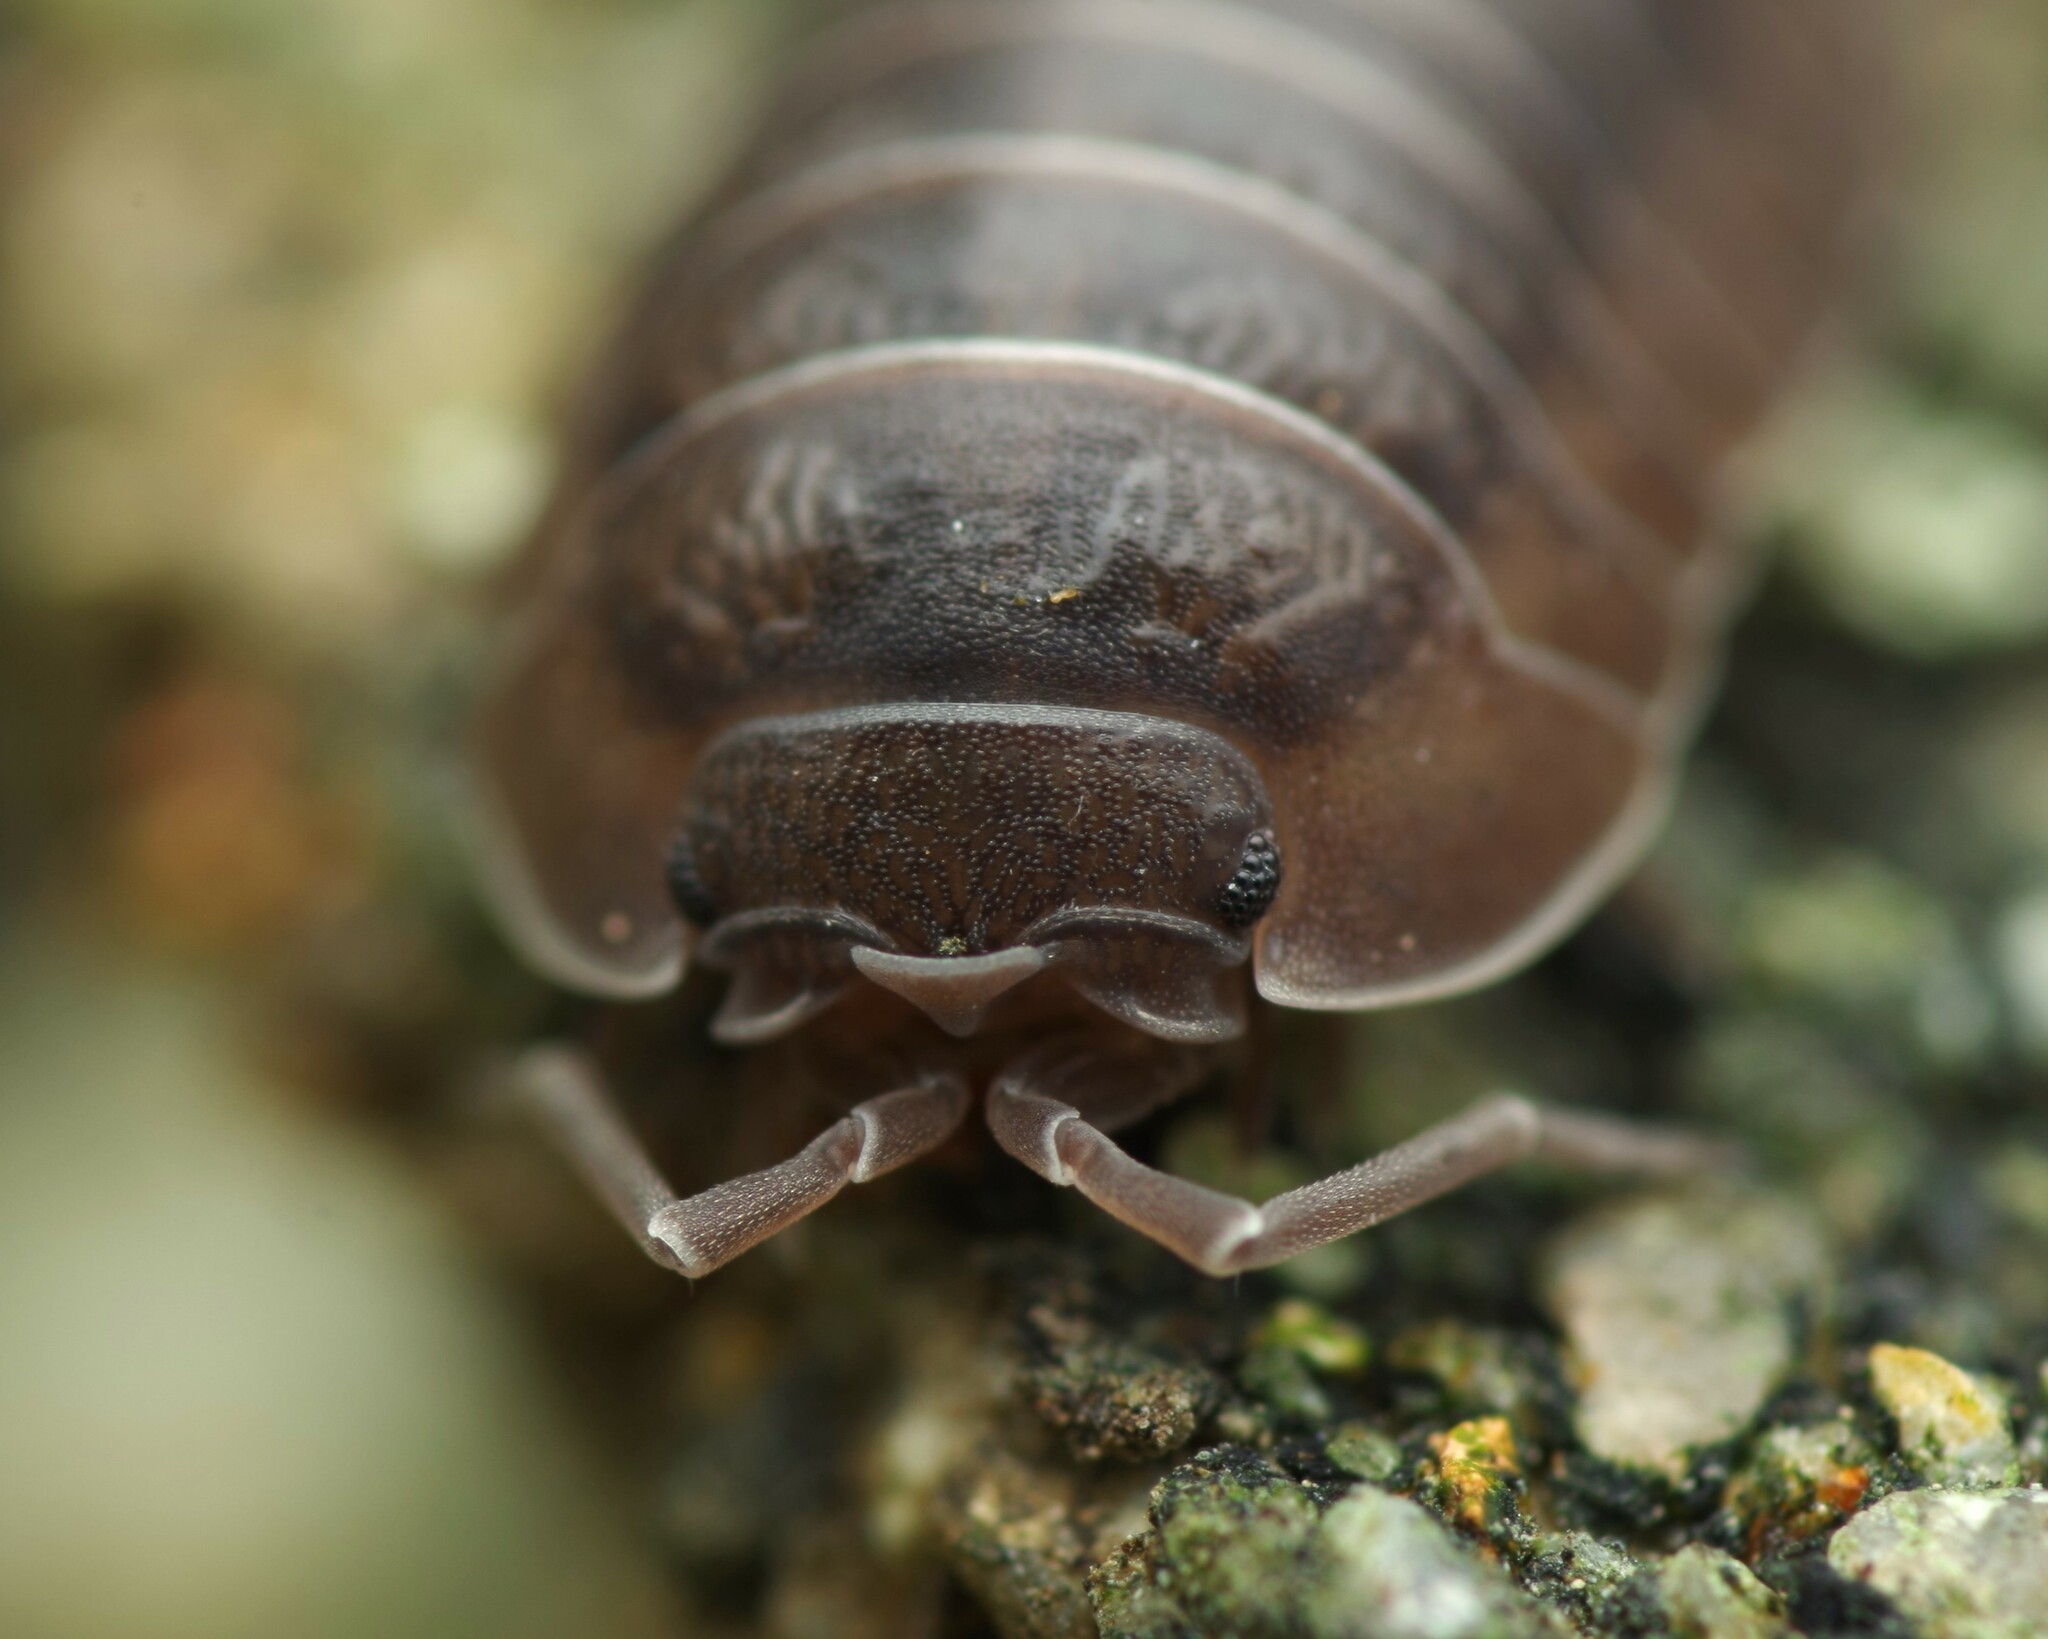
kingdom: Animalia
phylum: Arthropoda
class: Malacostraca
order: Isopoda
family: Armadillidiidae
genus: Armadillidium
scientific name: Armadillidium nasatum
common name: Isopod
